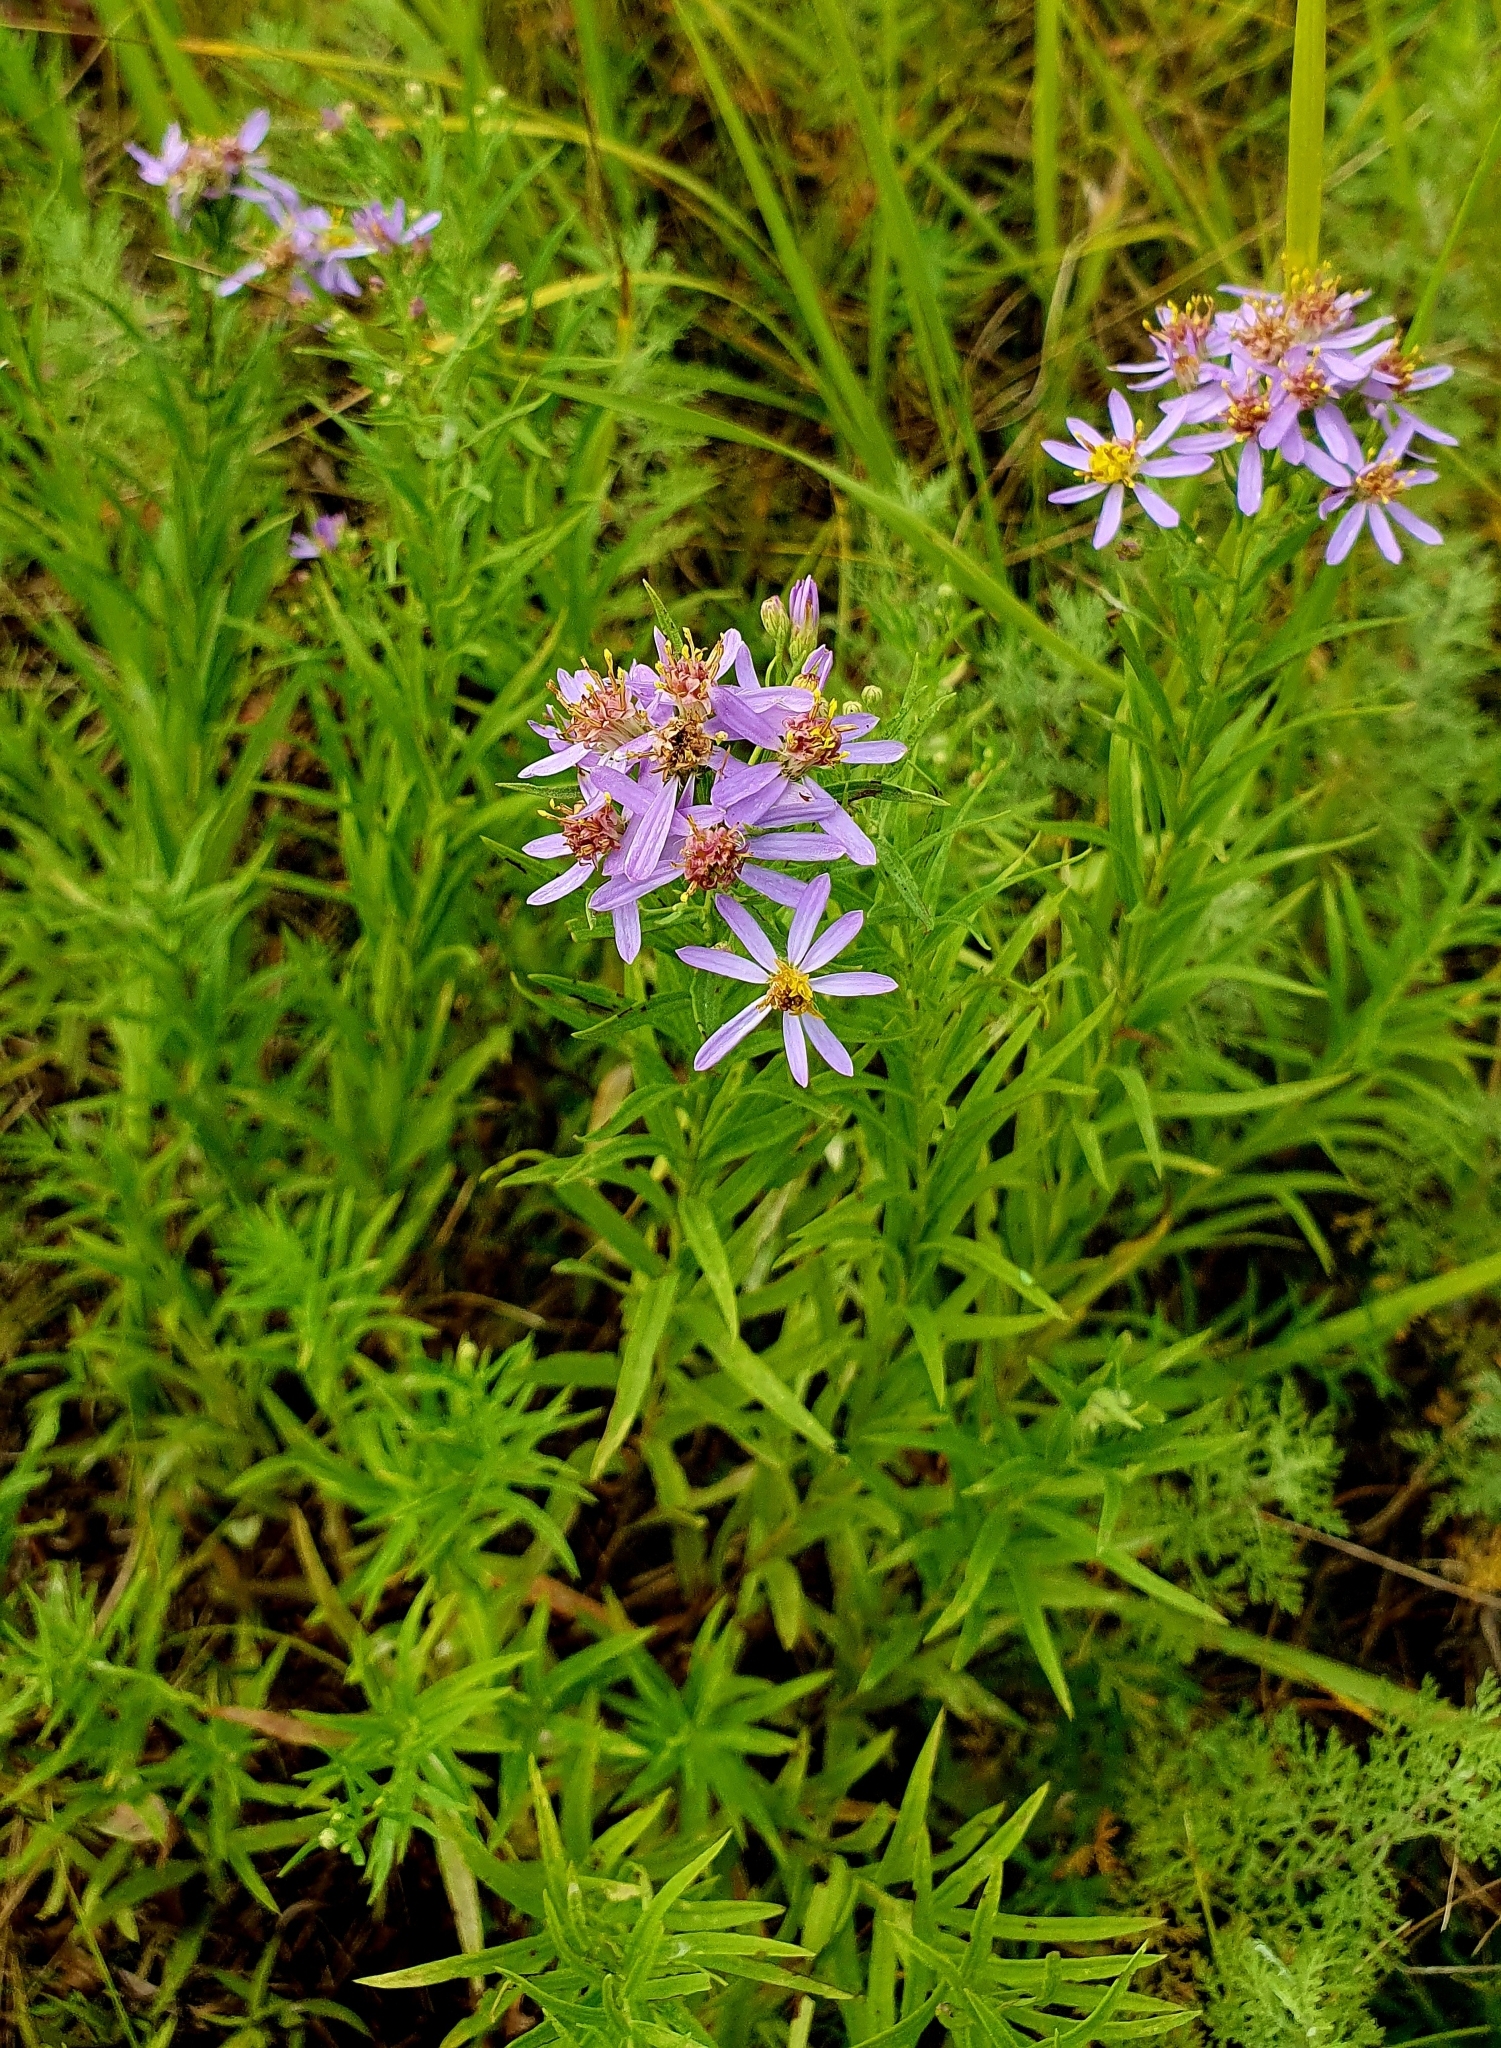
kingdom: Plantae
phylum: Tracheophyta
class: Magnoliopsida
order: Asterales
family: Asteraceae
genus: Galatella
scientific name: Galatella sedifolia
